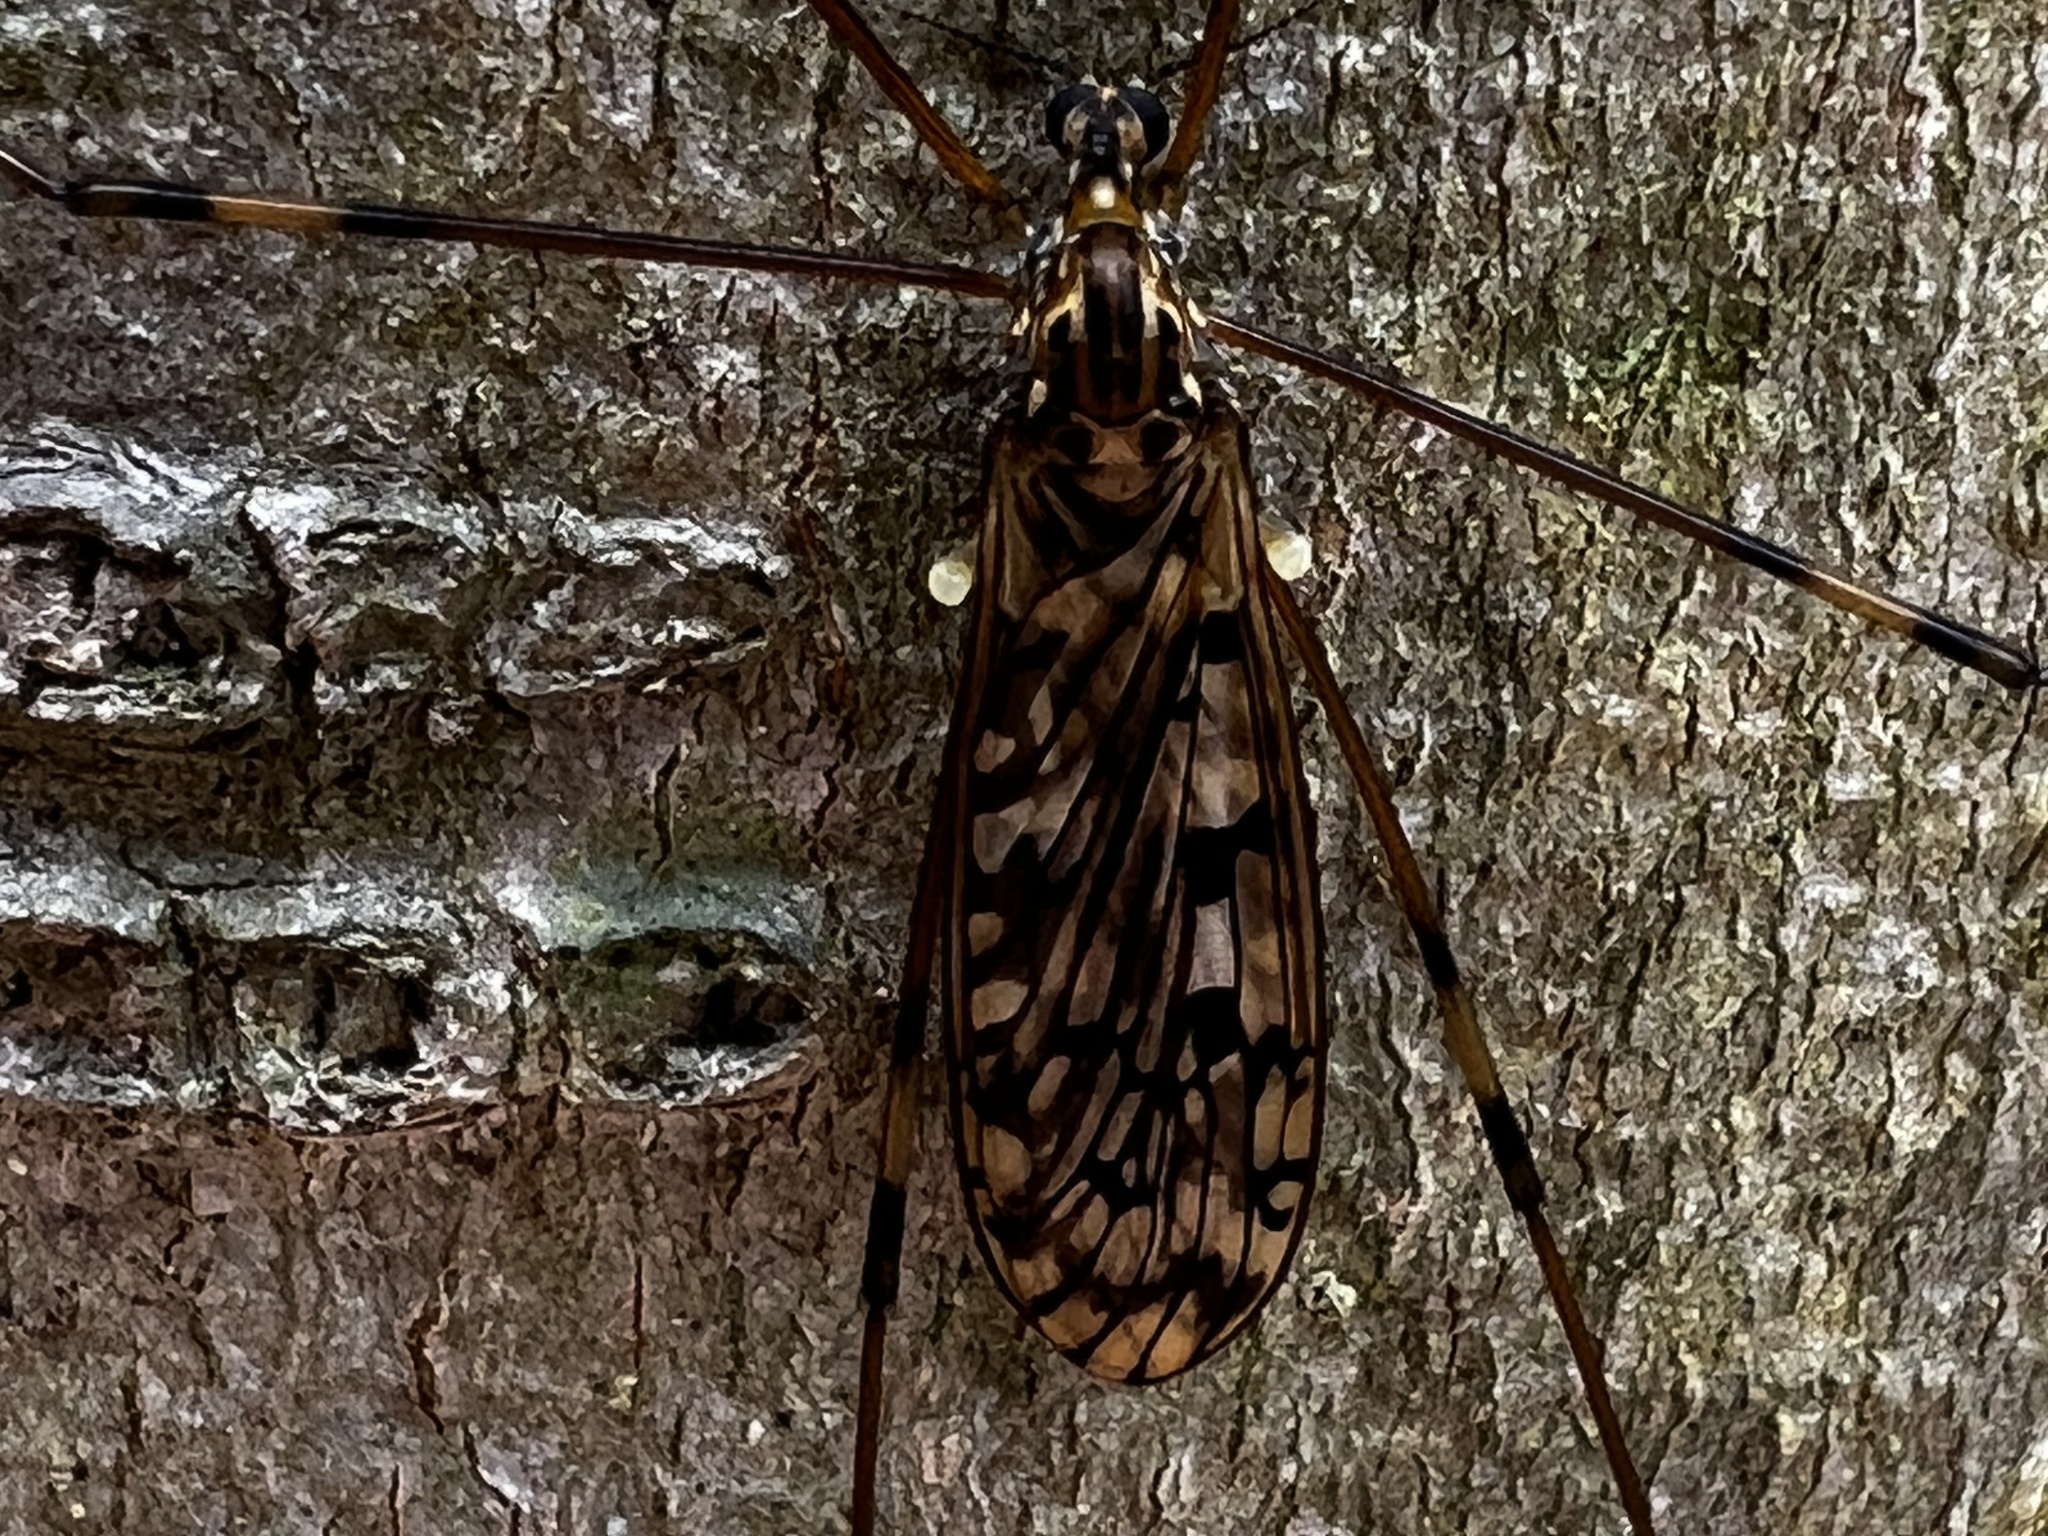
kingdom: Animalia
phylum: Arthropoda
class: Insecta
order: Diptera
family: Limoniidae
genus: Metalimnobia
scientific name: Metalimnobia cinctipes
